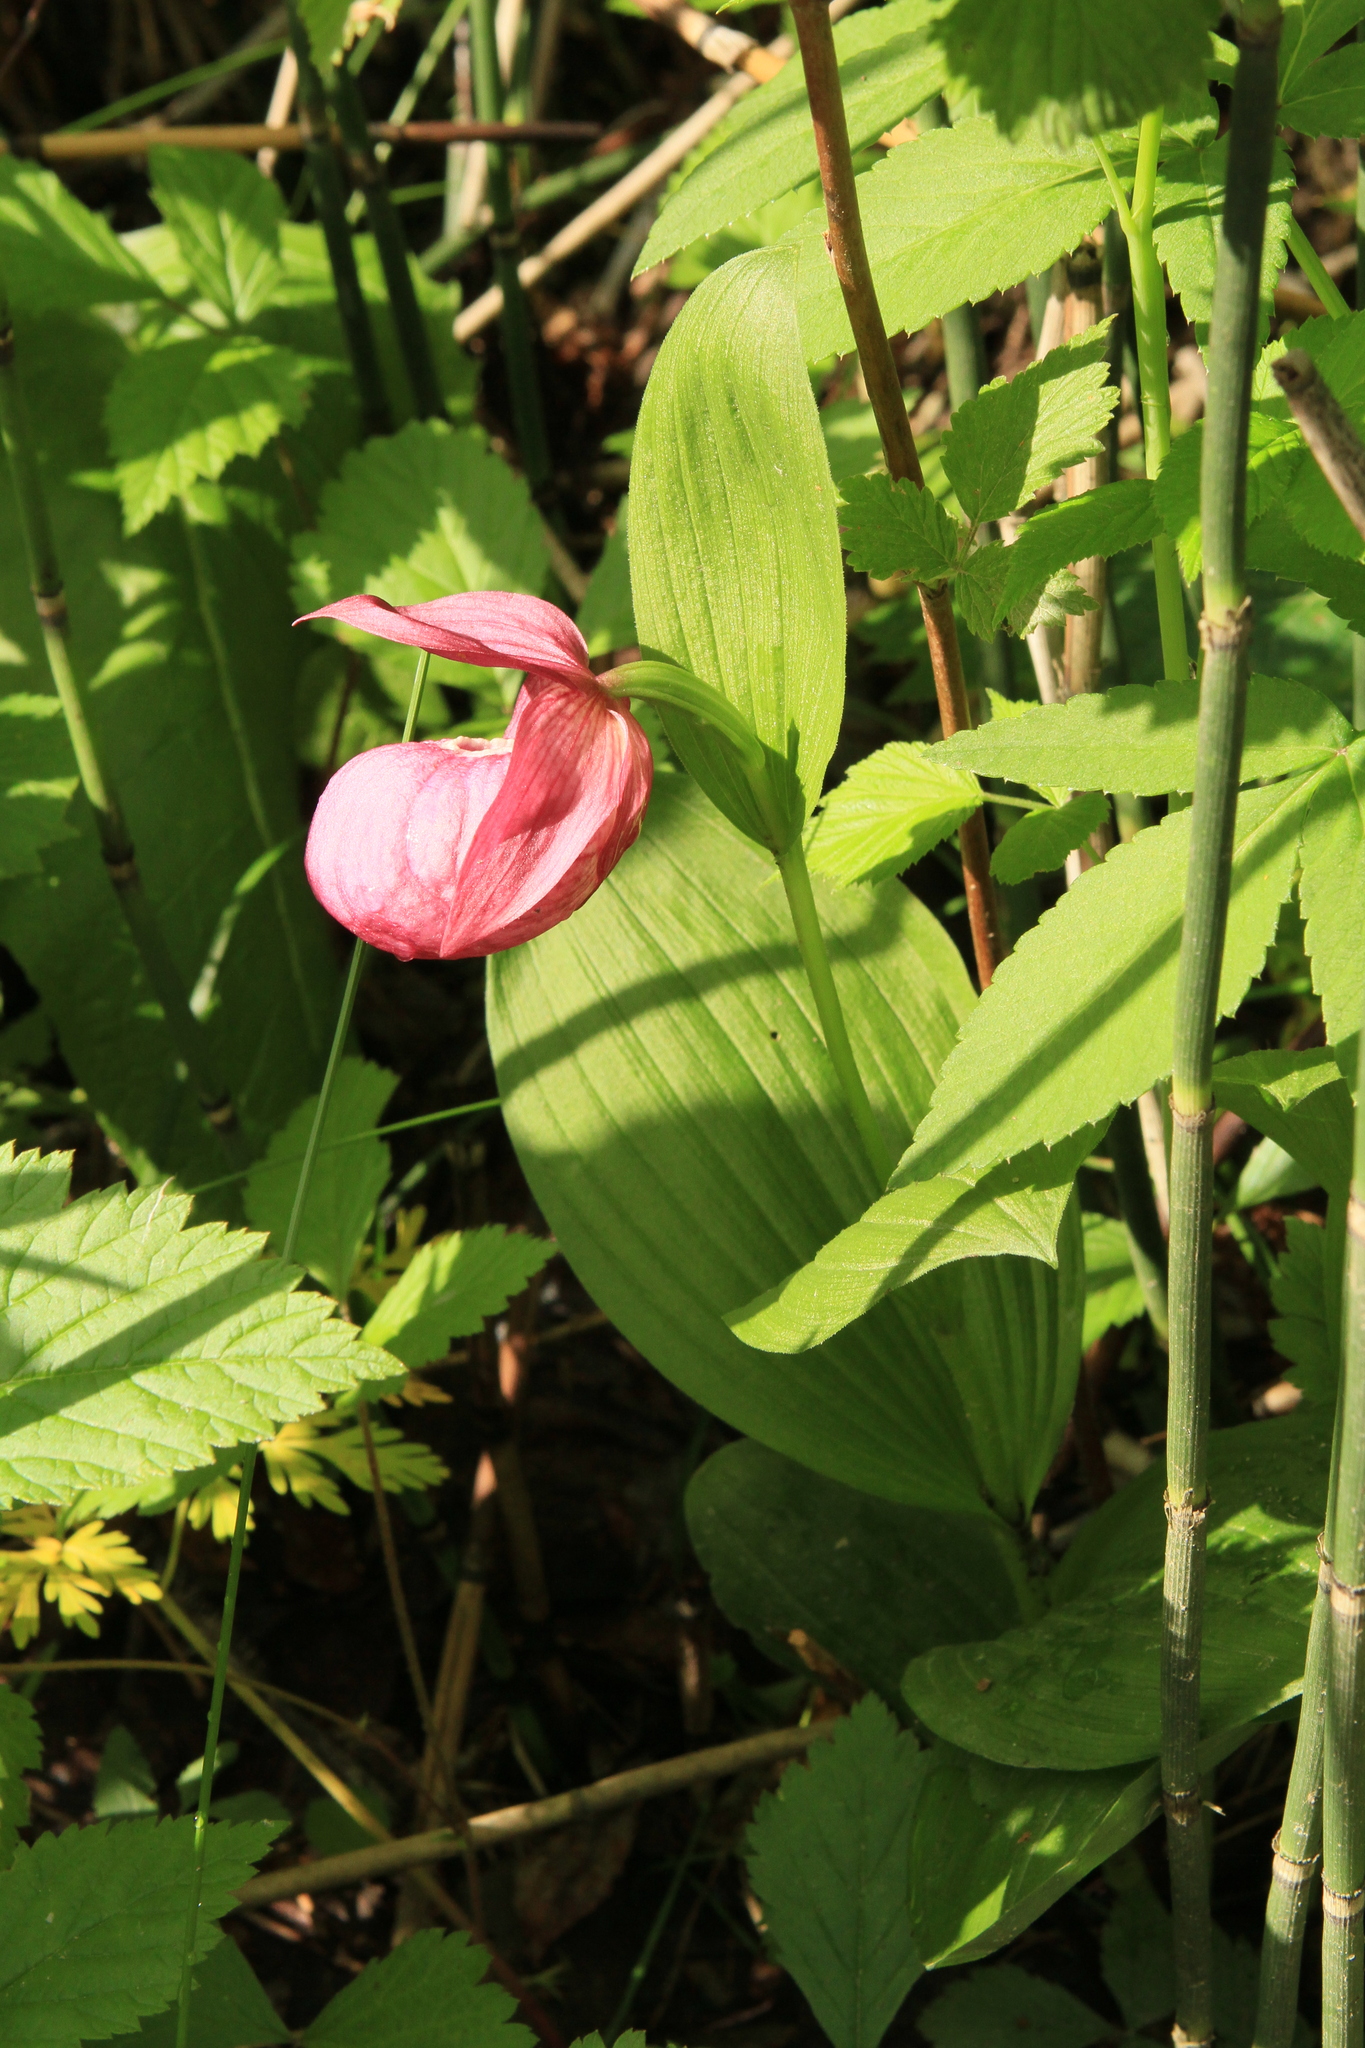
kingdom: Plantae
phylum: Tracheophyta
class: Liliopsida
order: Asparagales
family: Orchidaceae
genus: Cypripedium
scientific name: Cypripedium macranthos
